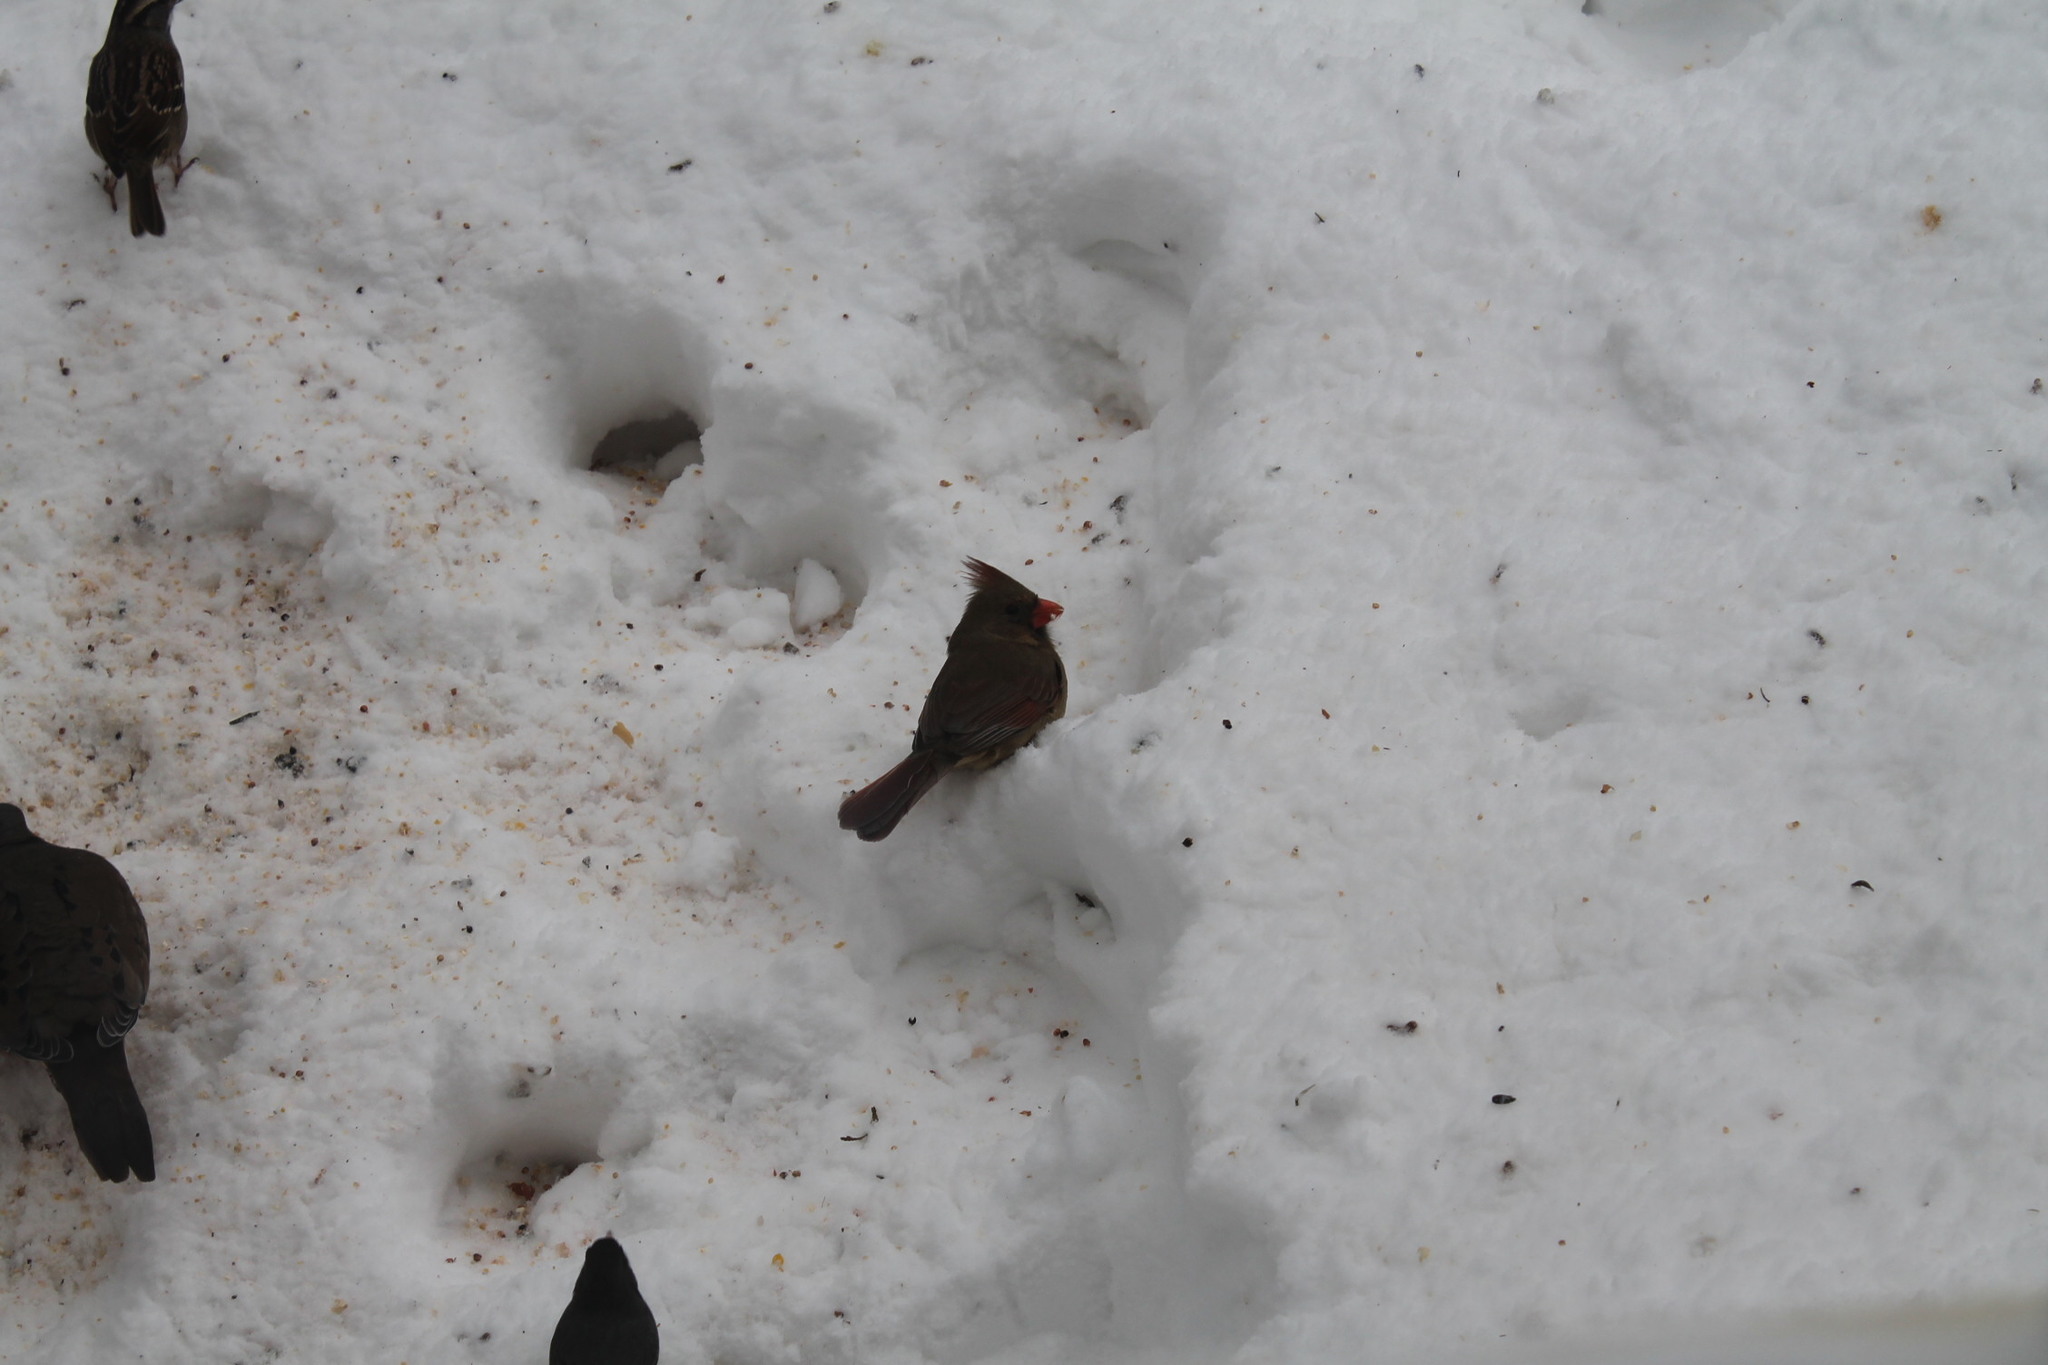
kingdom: Animalia
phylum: Chordata
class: Aves
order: Passeriformes
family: Cardinalidae
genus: Cardinalis
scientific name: Cardinalis cardinalis
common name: Northern cardinal
